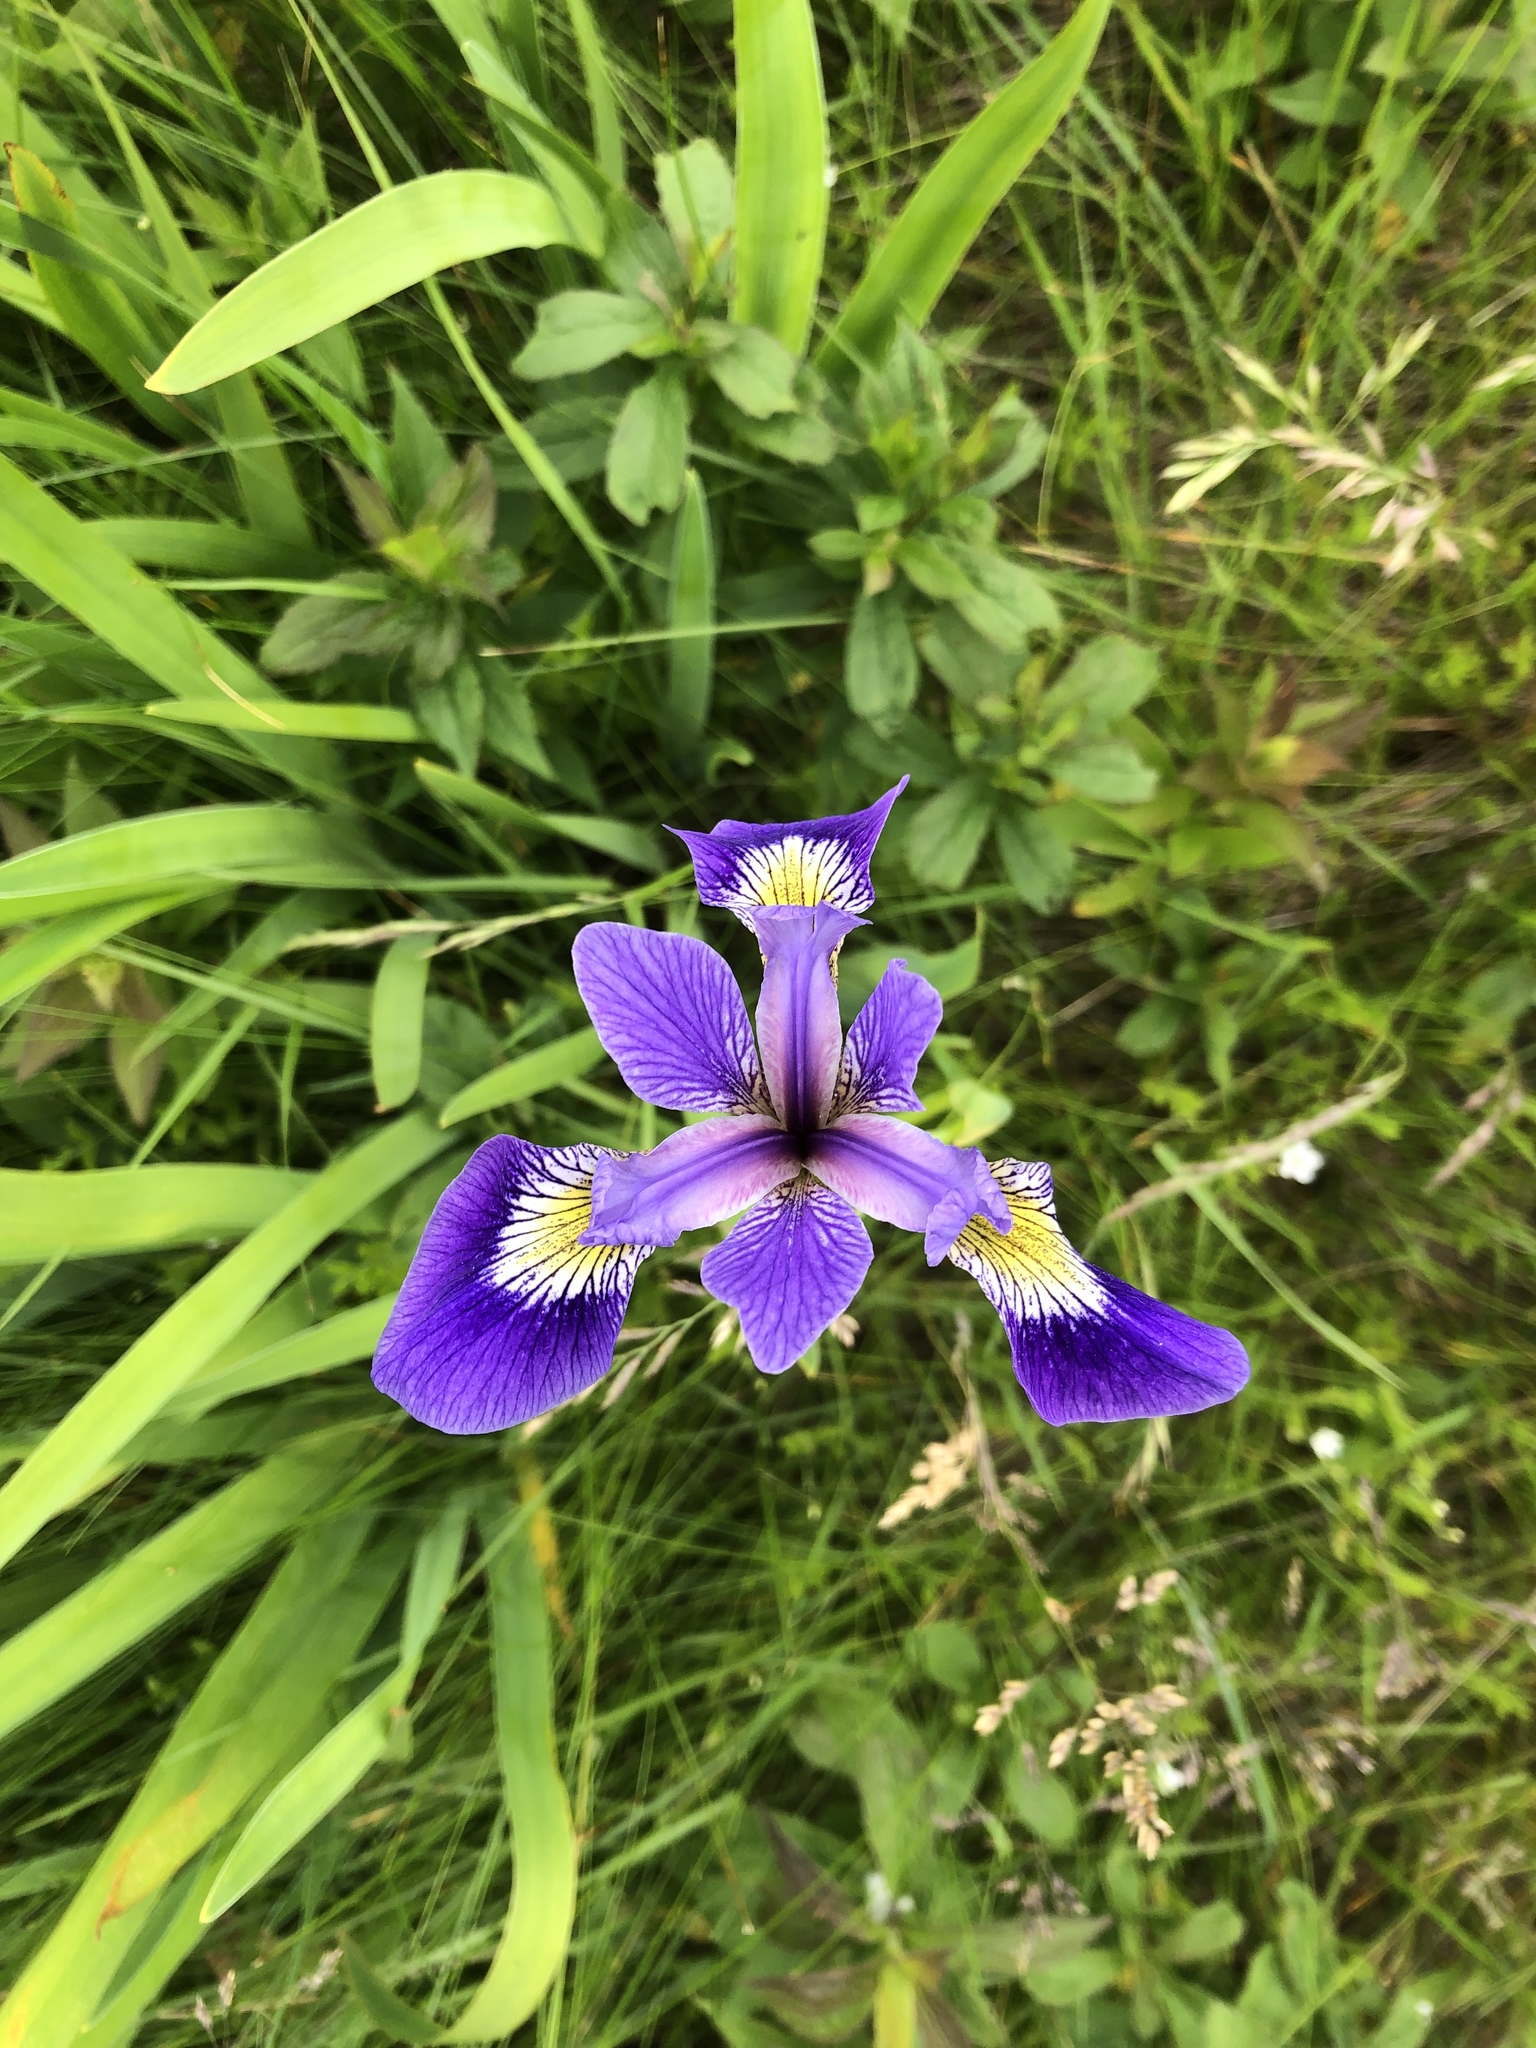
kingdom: Plantae
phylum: Tracheophyta
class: Liliopsida
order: Asparagales
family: Iridaceae
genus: Iris
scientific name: Iris versicolor
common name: Purple iris
